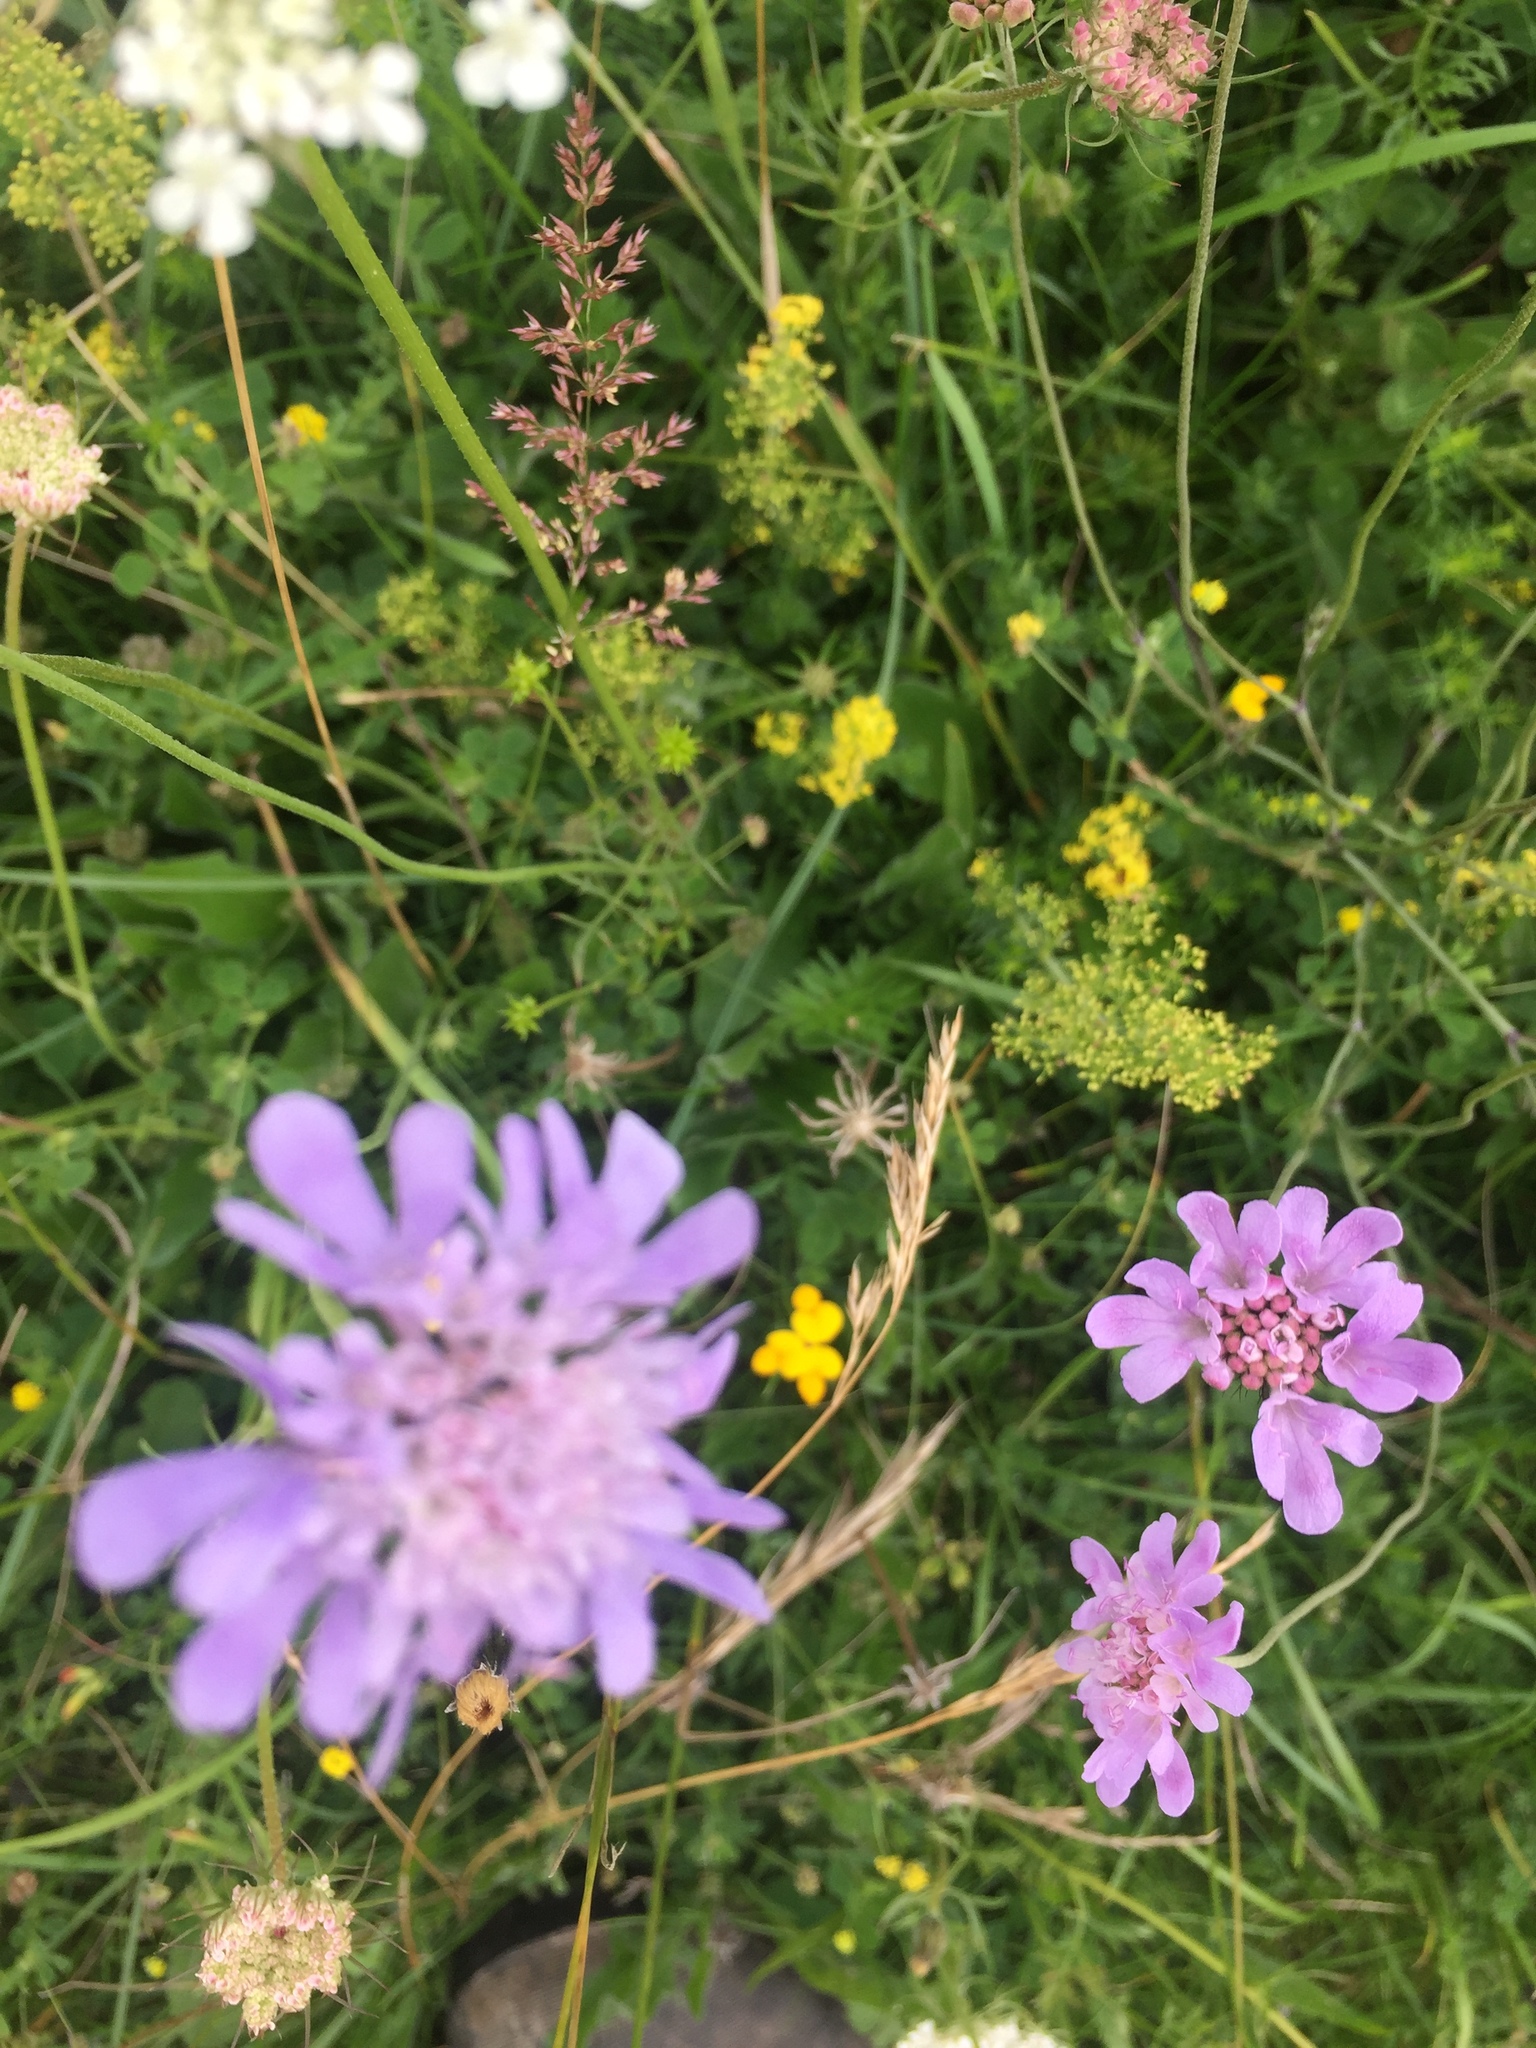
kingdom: Plantae
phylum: Tracheophyta
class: Magnoliopsida
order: Dipsacales
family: Caprifoliaceae
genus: Scabiosa
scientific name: Scabiosa columbaria
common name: Small scabious
